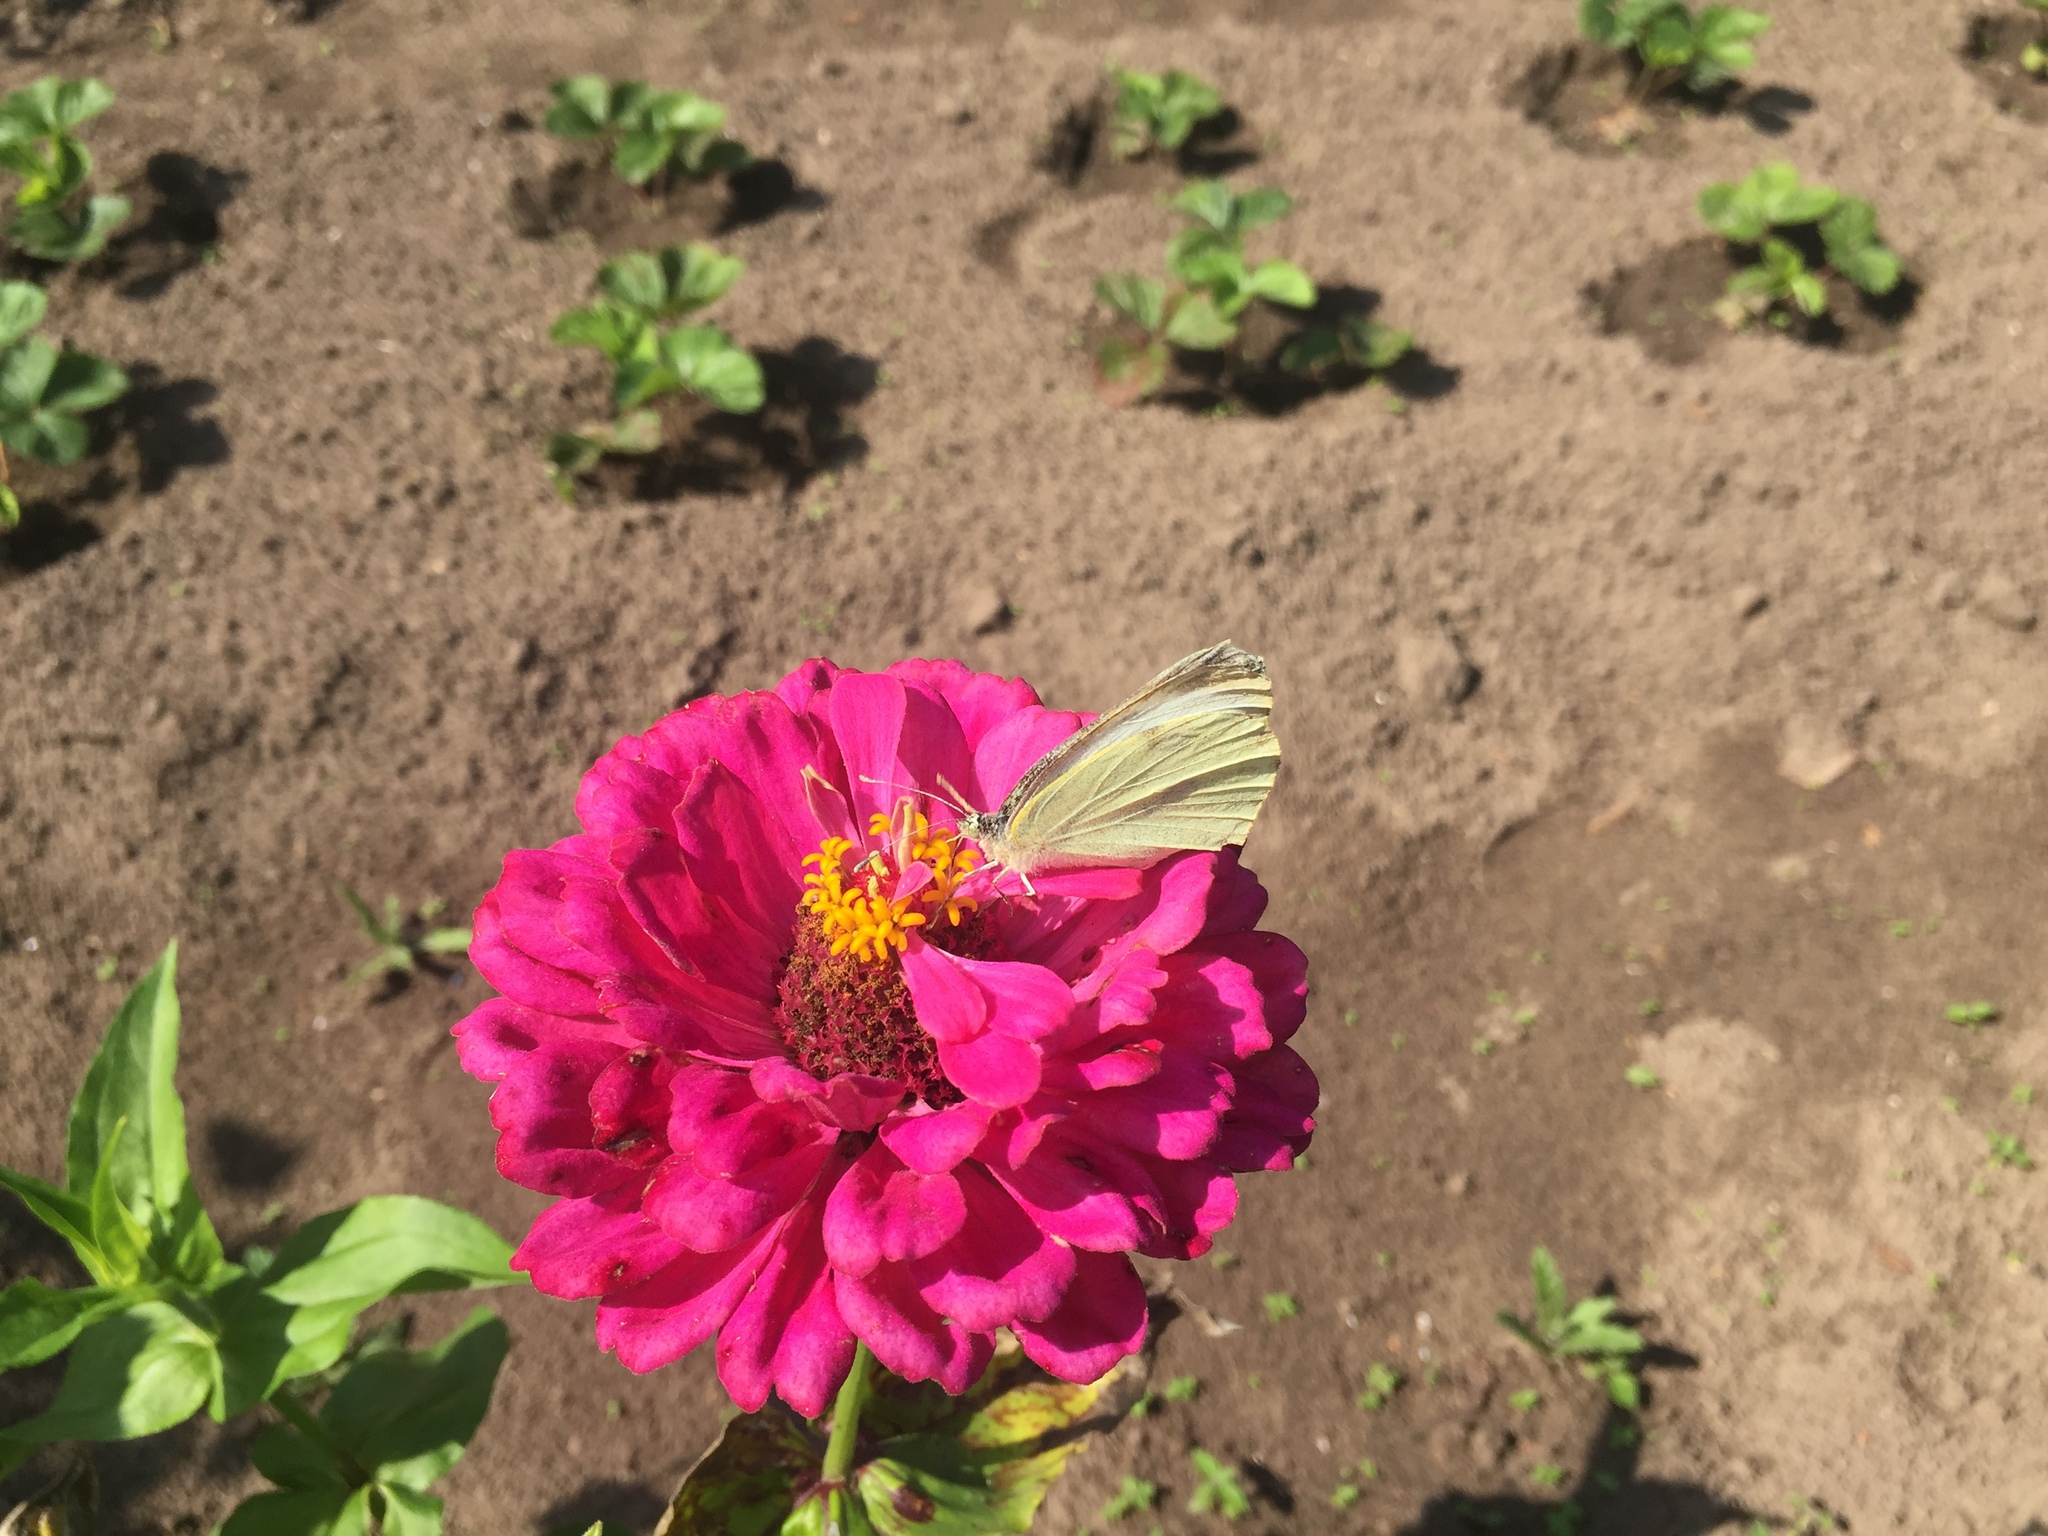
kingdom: Animalia
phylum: Arthropoda
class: Insecta
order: Lepidoptera
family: Pieridae
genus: Pieris
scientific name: Pieris brassicae
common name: Large white
